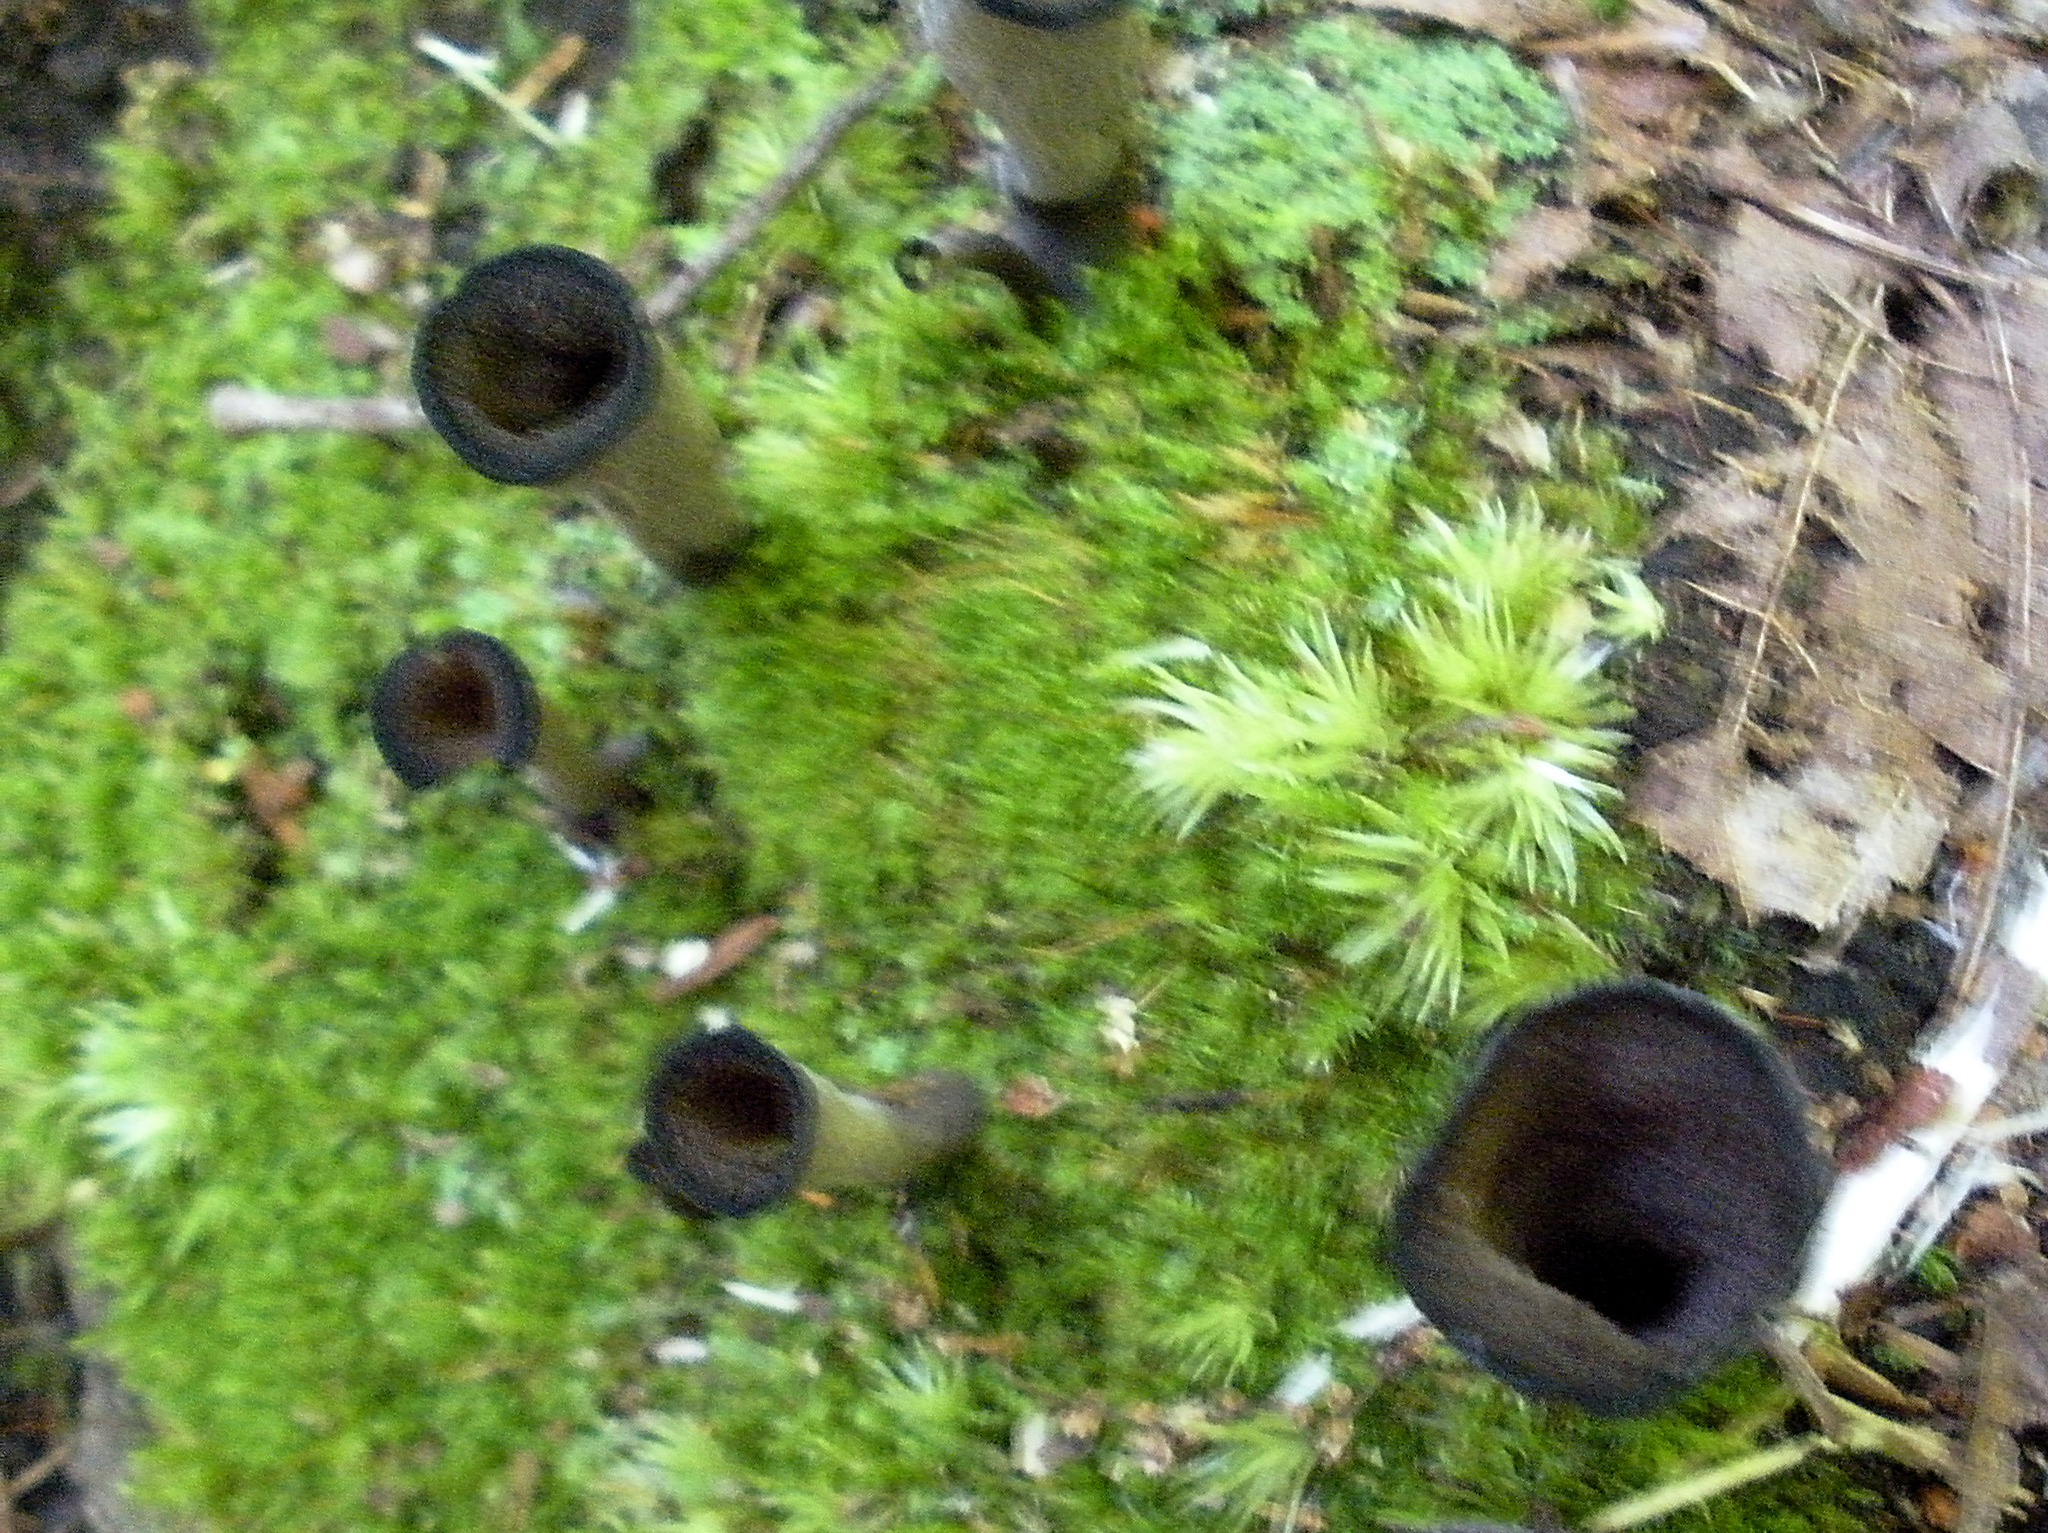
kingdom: Fungi
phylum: Basidiomycota
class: Agaricomycetes
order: Cantharellales
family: Hydnaceae
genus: Craterellus
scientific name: Craterellus cornucopioides
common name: Horn of plenty
